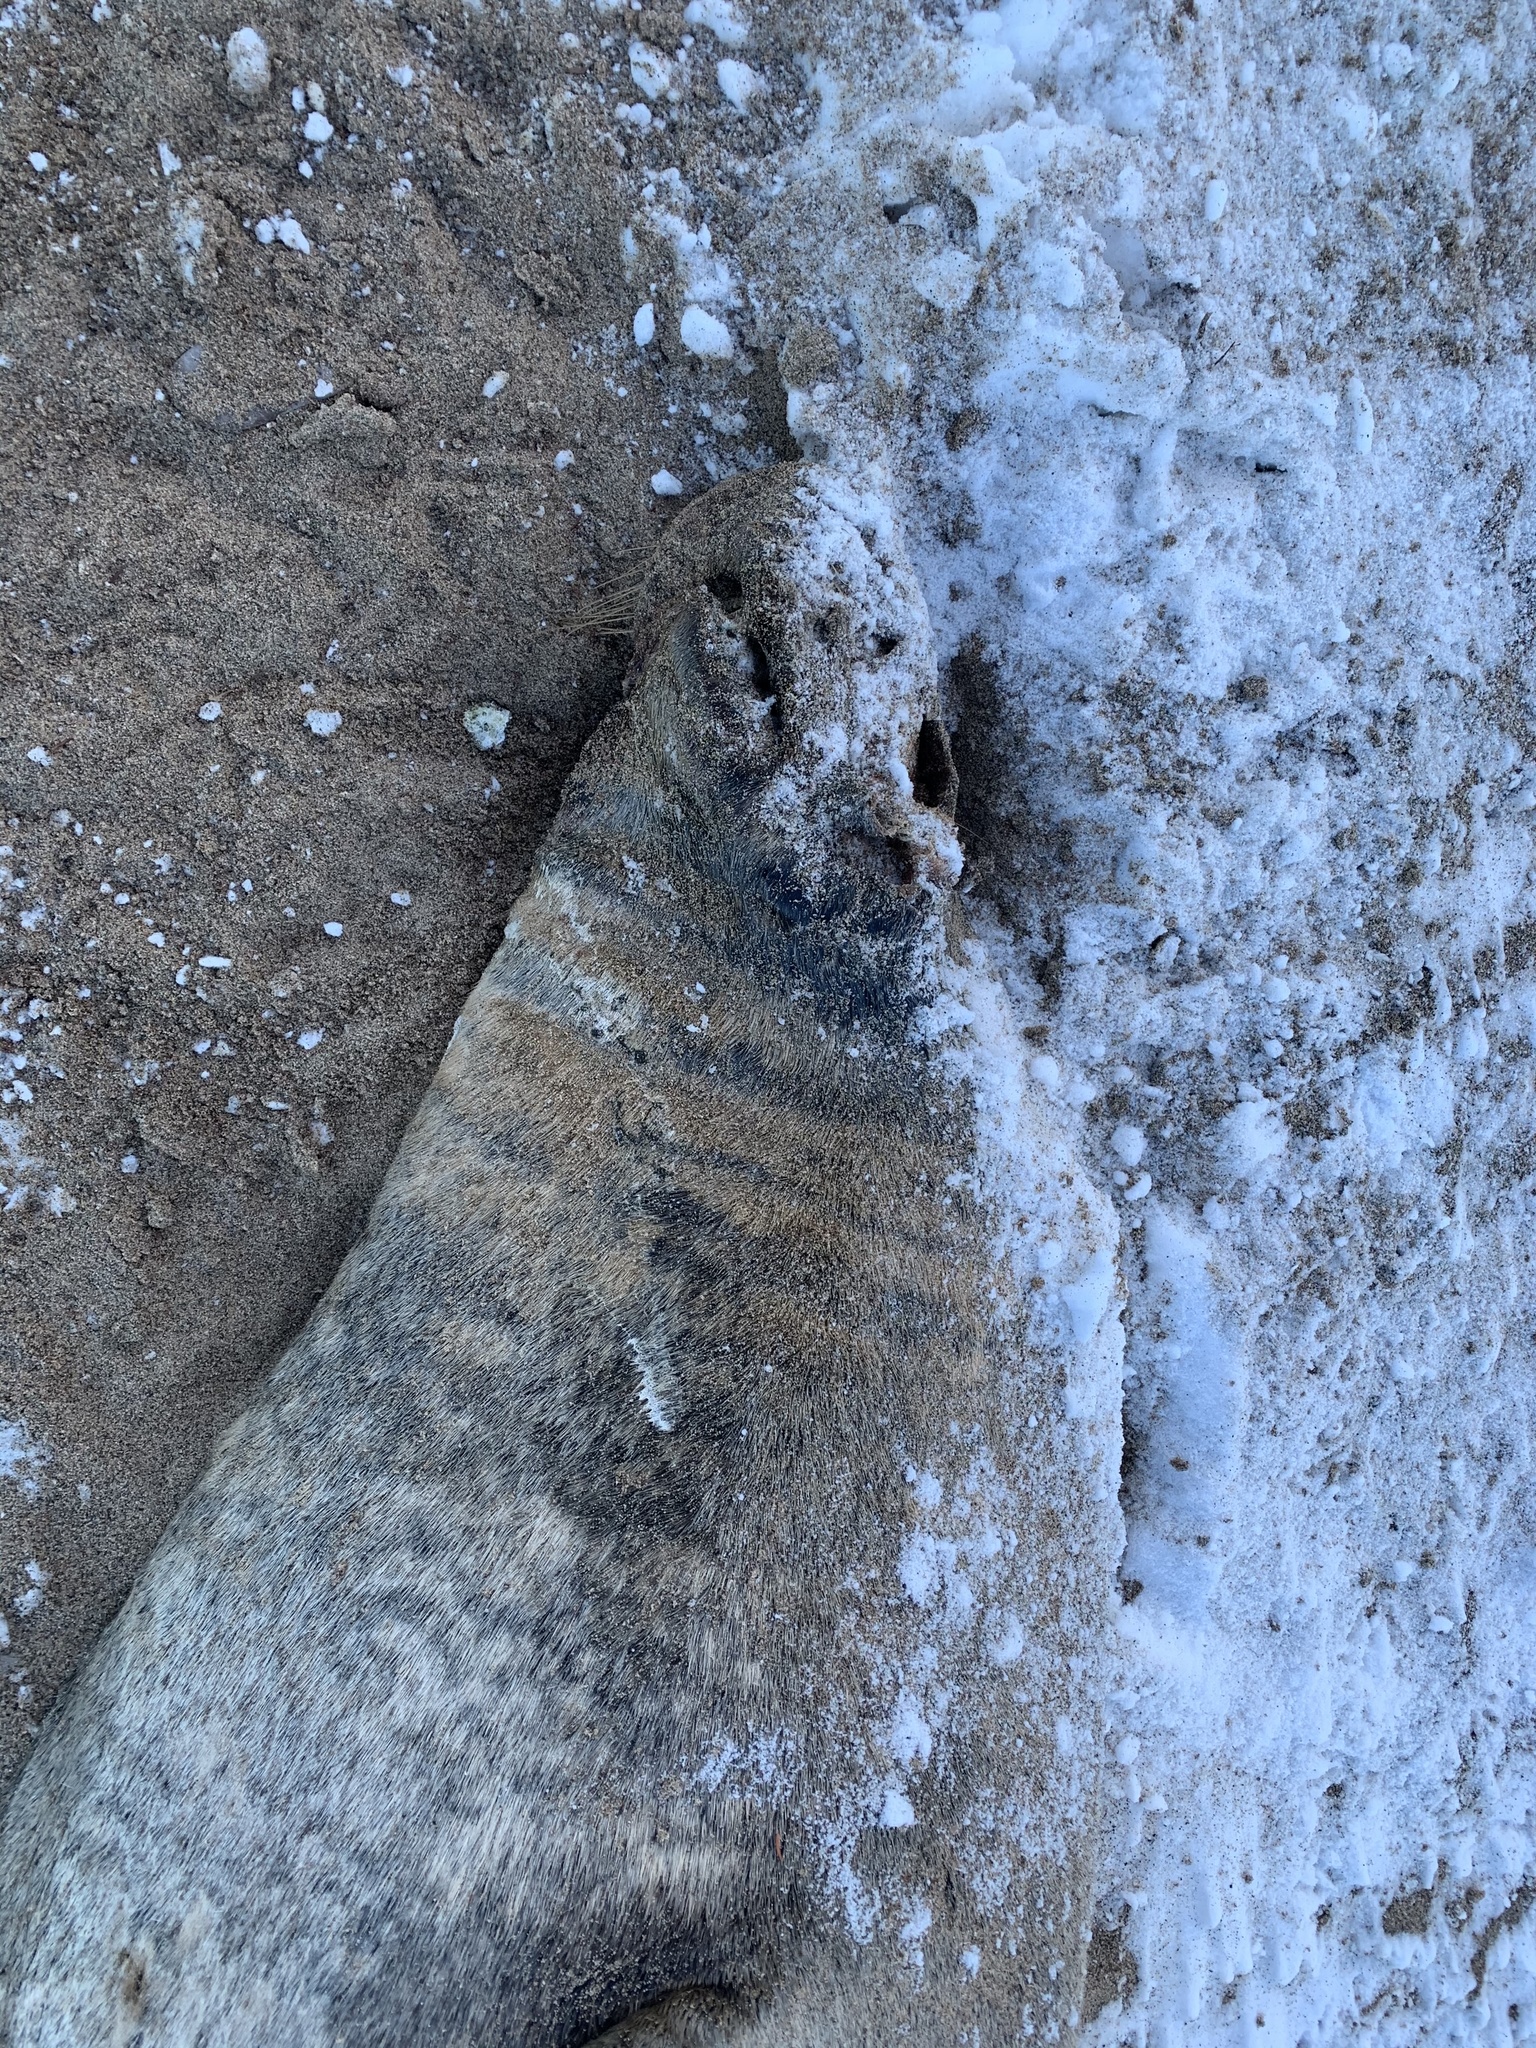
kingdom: Animalia
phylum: Chordata
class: Mammalia
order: Carnivora
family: Phocidae
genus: Halichoerus
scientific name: Halichoerus grypus
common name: Grey seal
